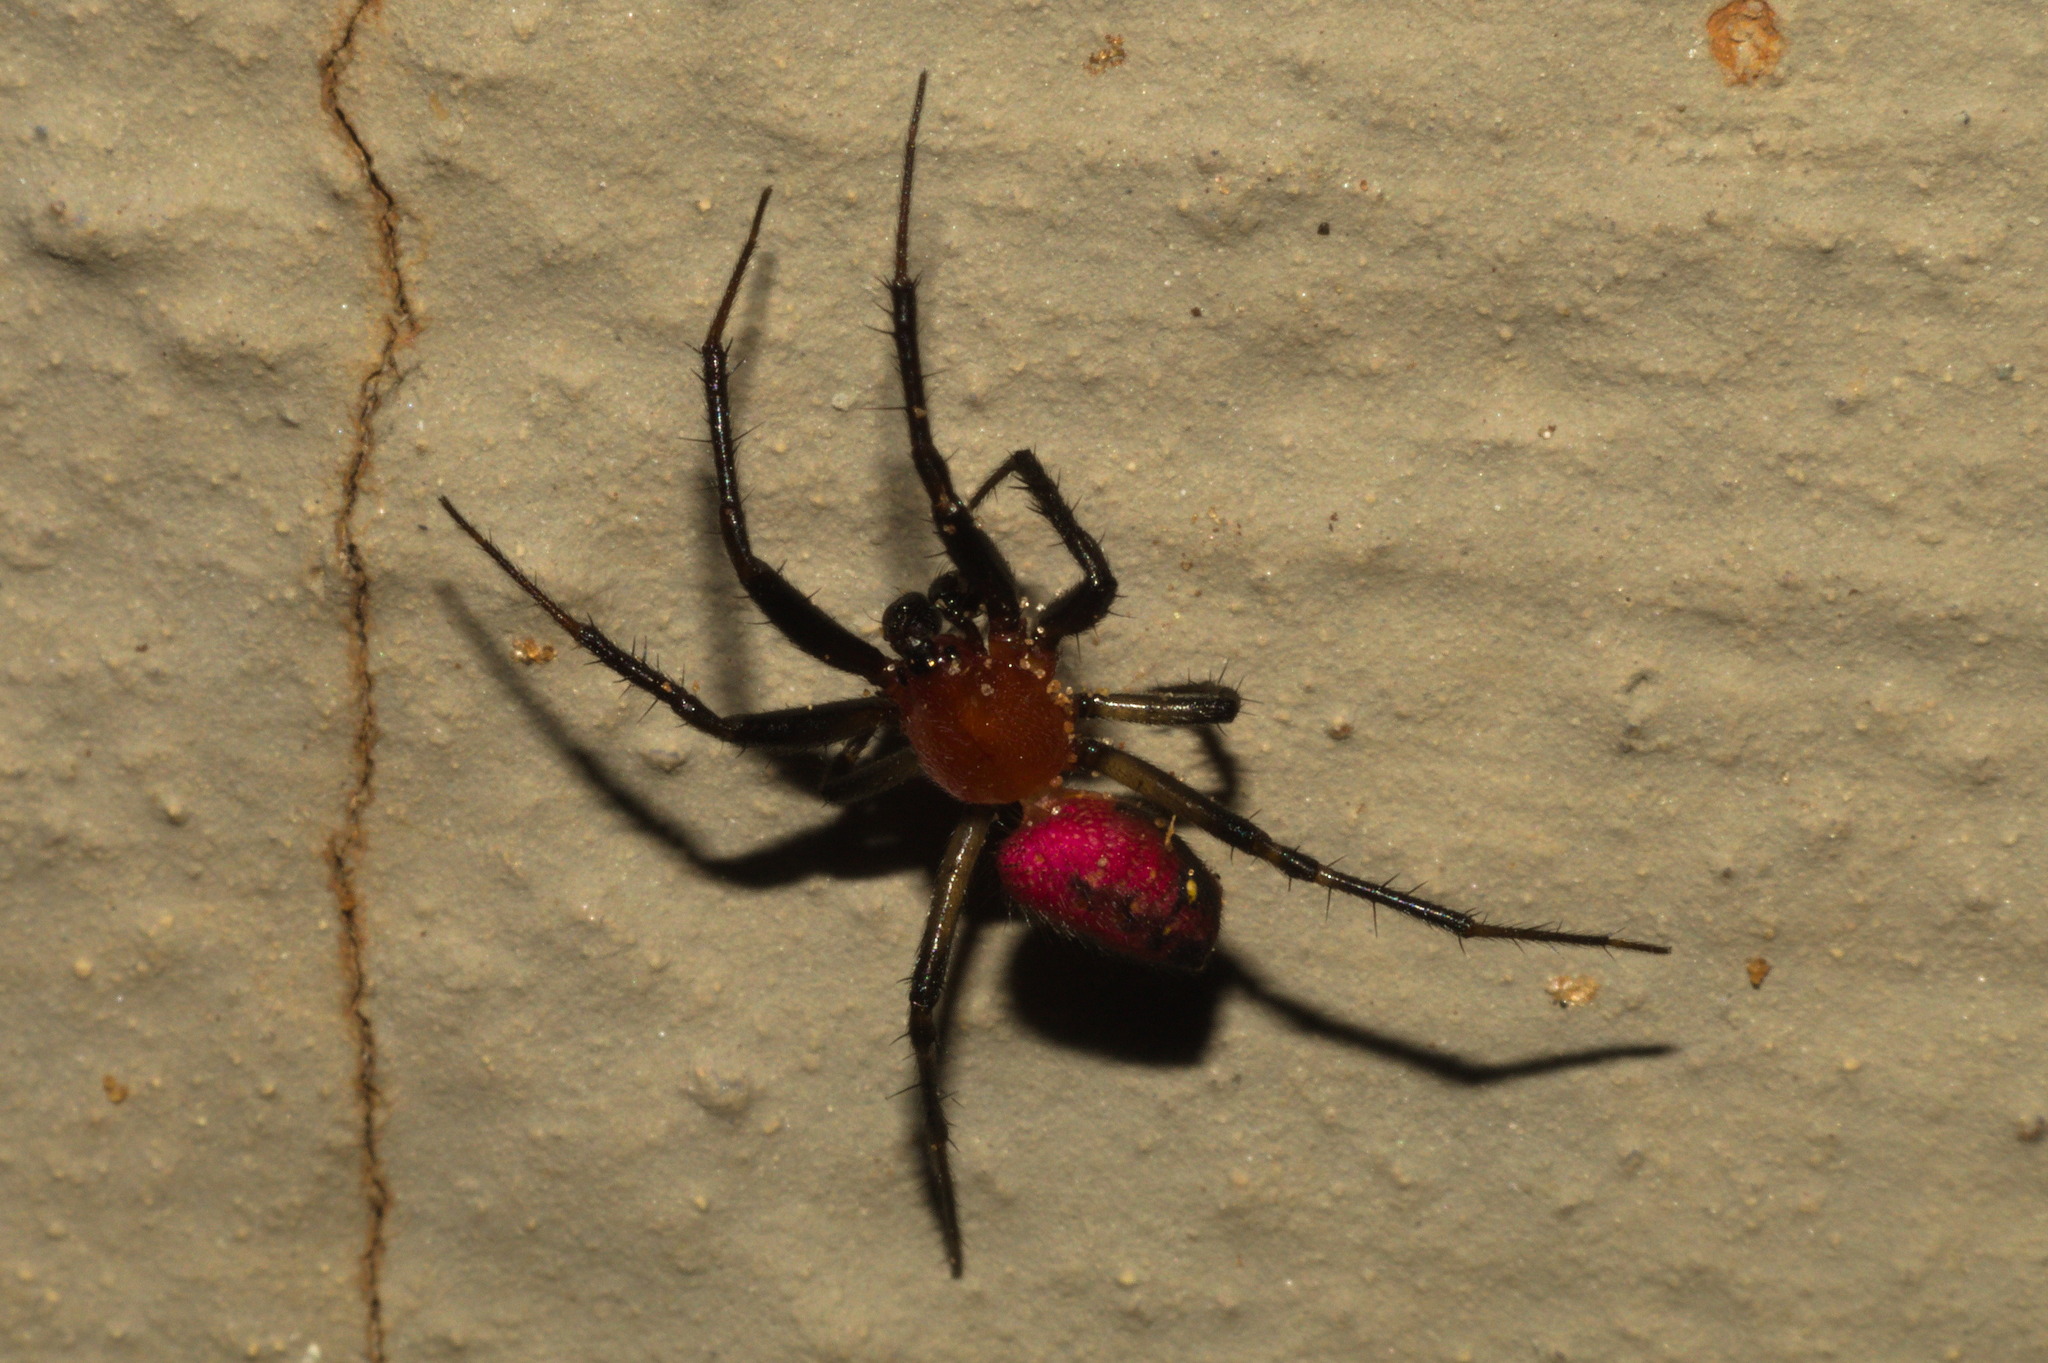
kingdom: Animalia
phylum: Arthropoda
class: Arachnida
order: Araneae
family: Araneidae
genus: Alpaida
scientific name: Alpaida carminea
